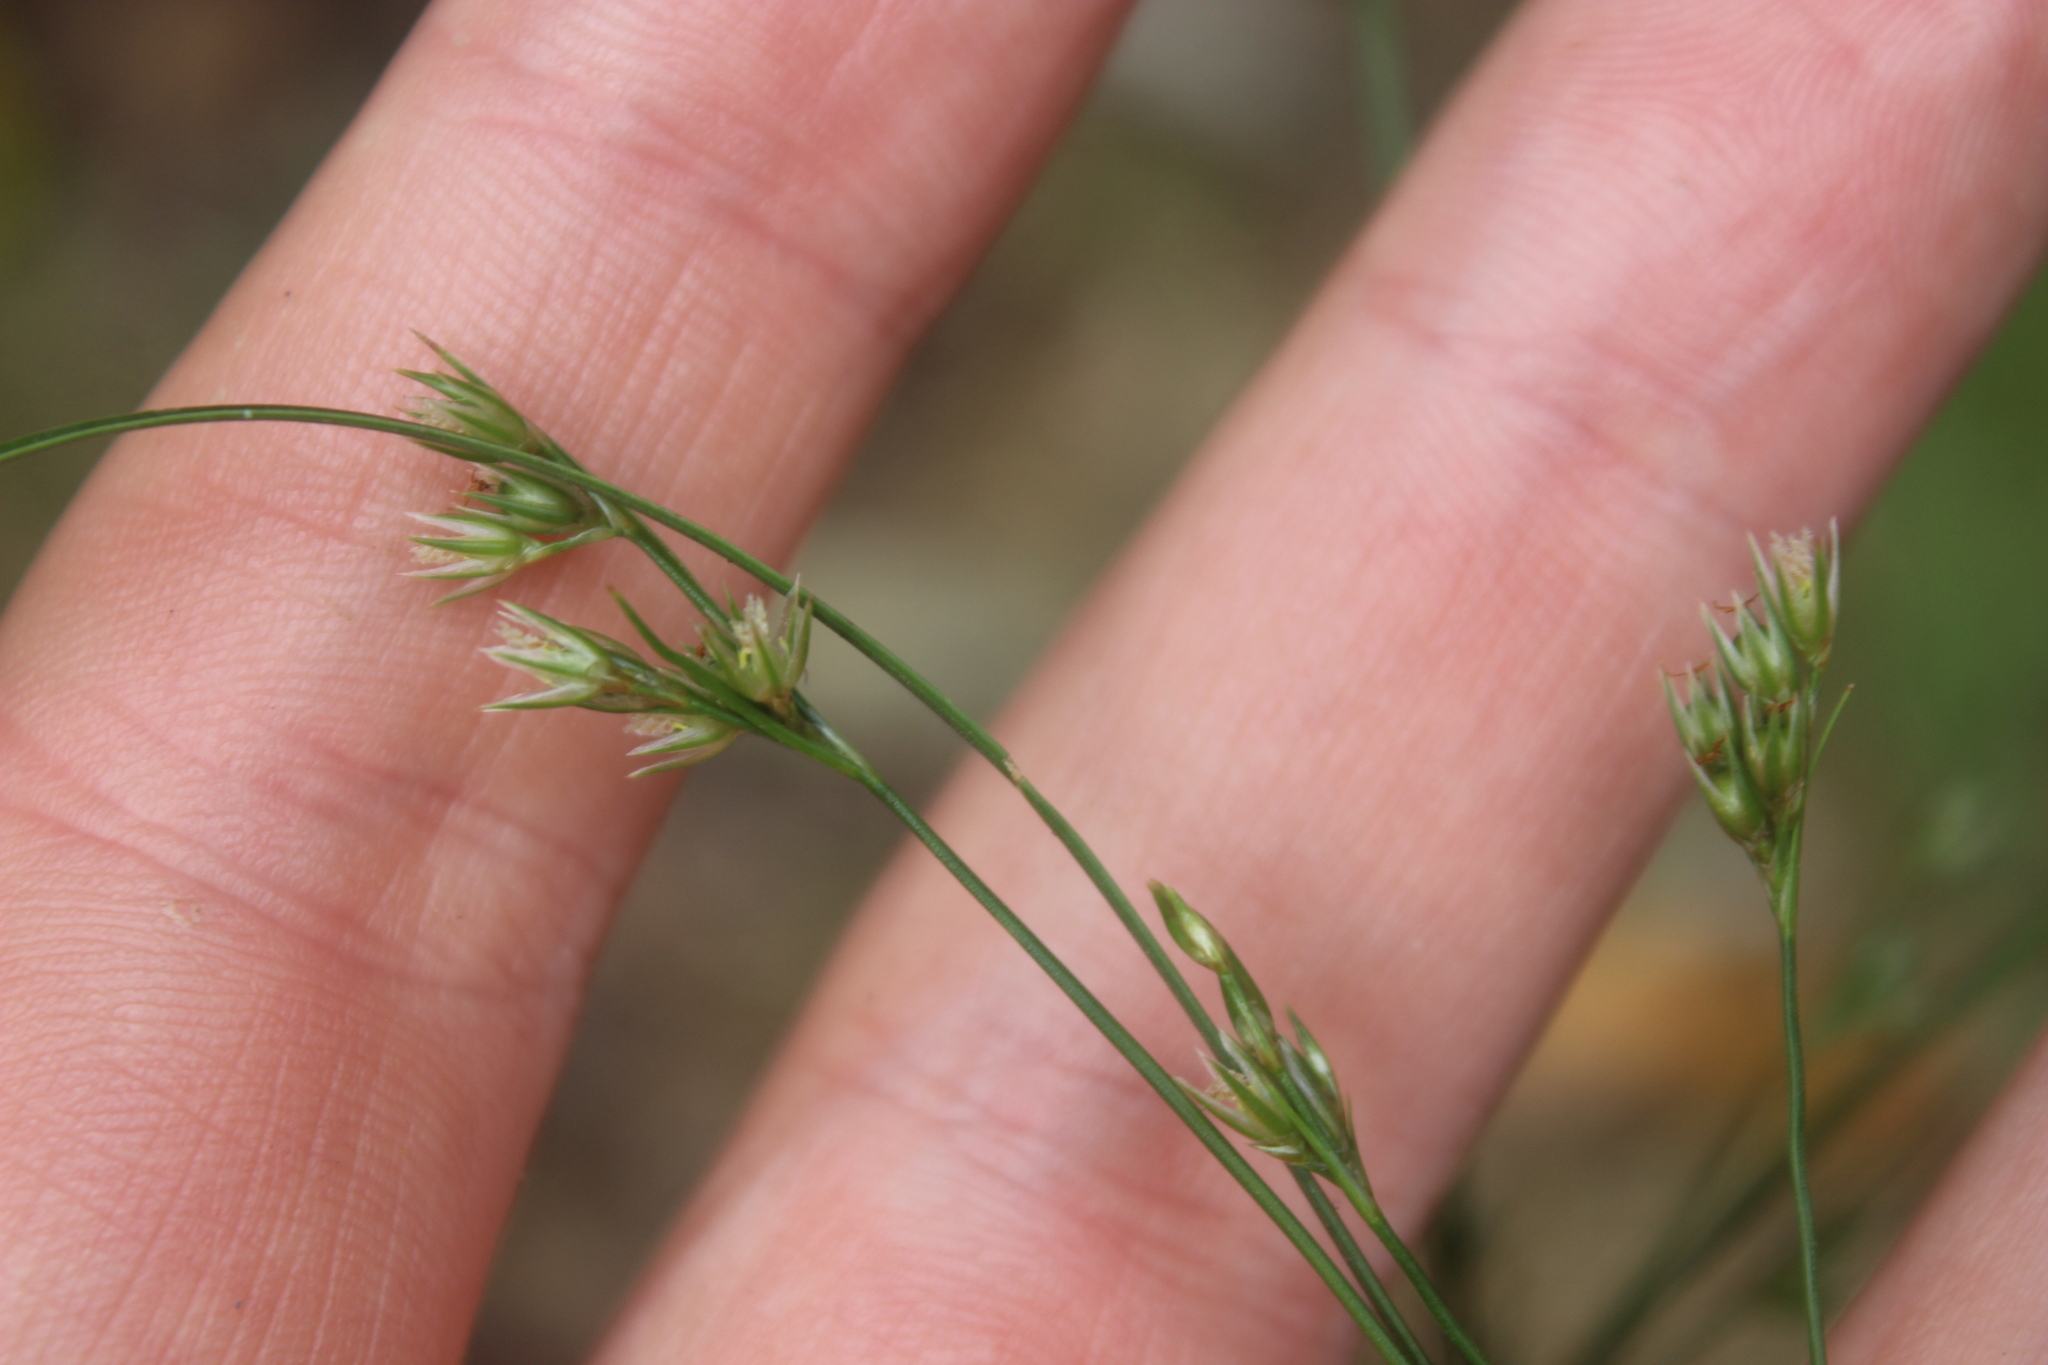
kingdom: Plantae
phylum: Tracheophyta
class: Liliopsida
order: Poales
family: Juncaceae
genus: Juncus
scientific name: Juncus tenuis
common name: Slender rush
